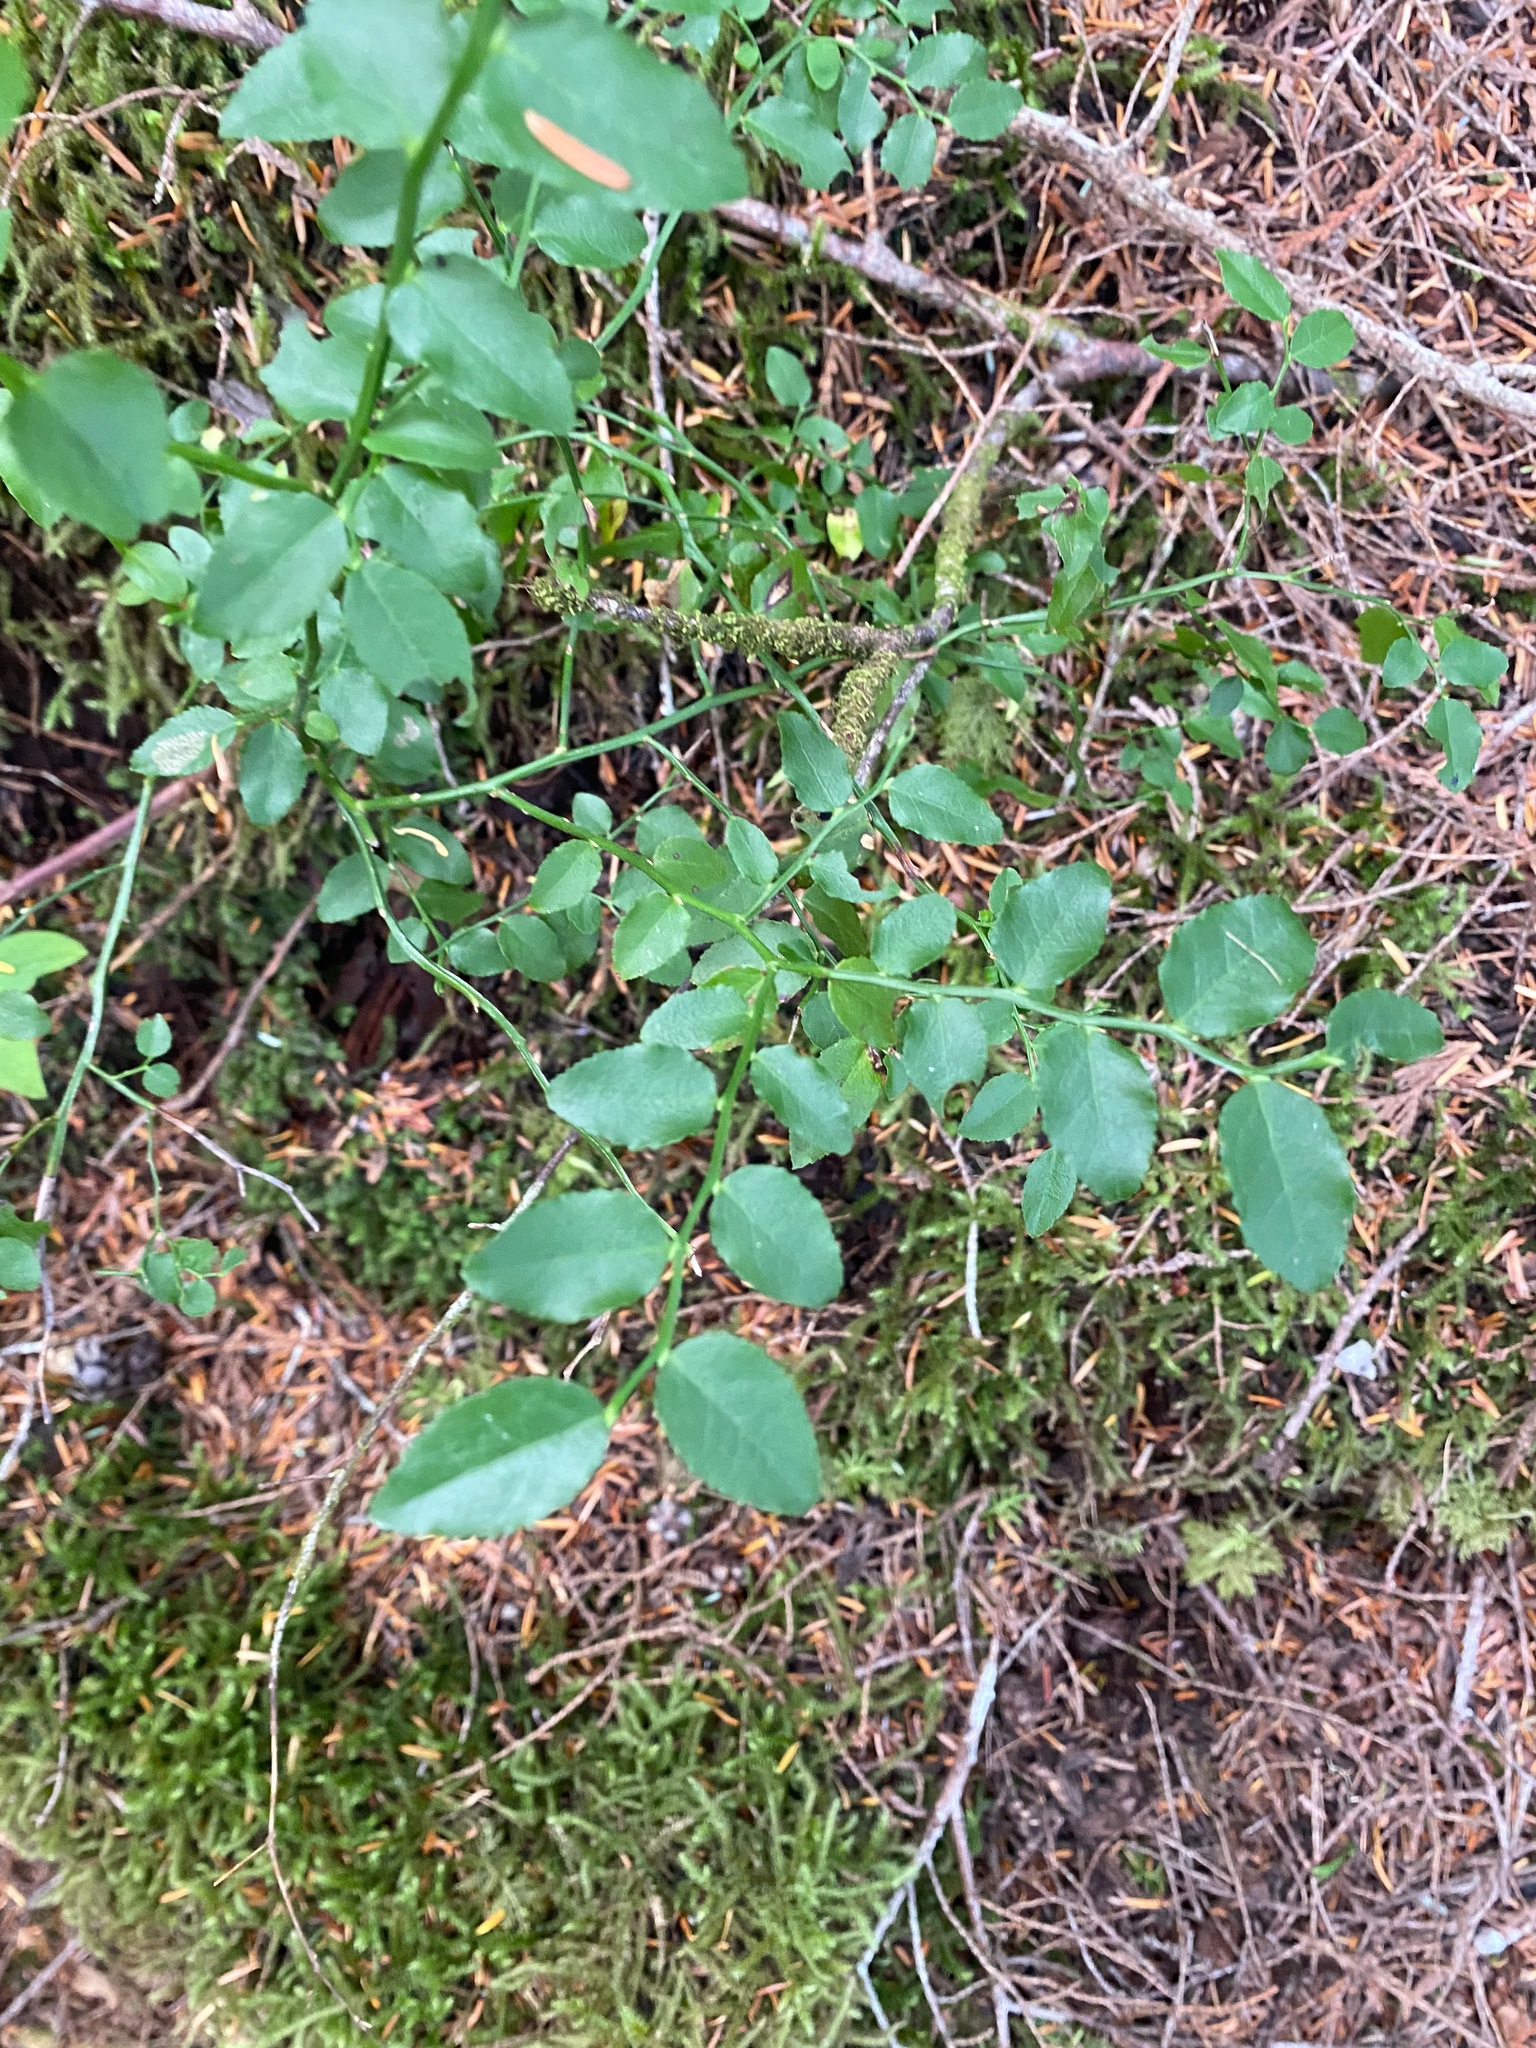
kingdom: Plantae
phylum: Tracheophyta
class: Magnoliopsida
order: Ericales
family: Ericaceae
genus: Vaccinium
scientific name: Vaccinium parvifolium
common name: Red-huckleberry
